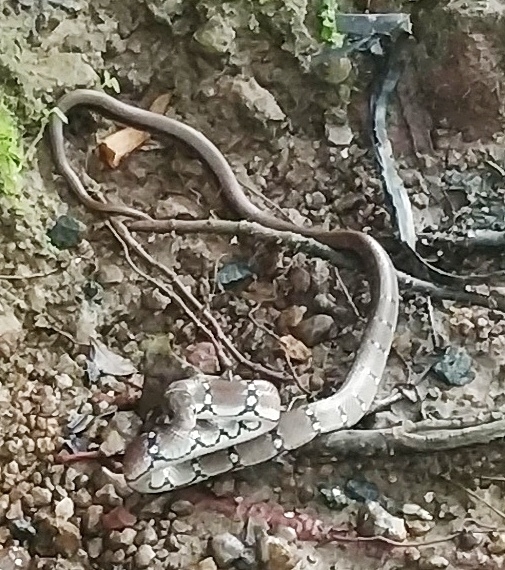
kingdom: Animalia
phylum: Chordata
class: Squamata
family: Colubridae
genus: Coelognathus
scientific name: Coelognathus helena
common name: Trinket snake
